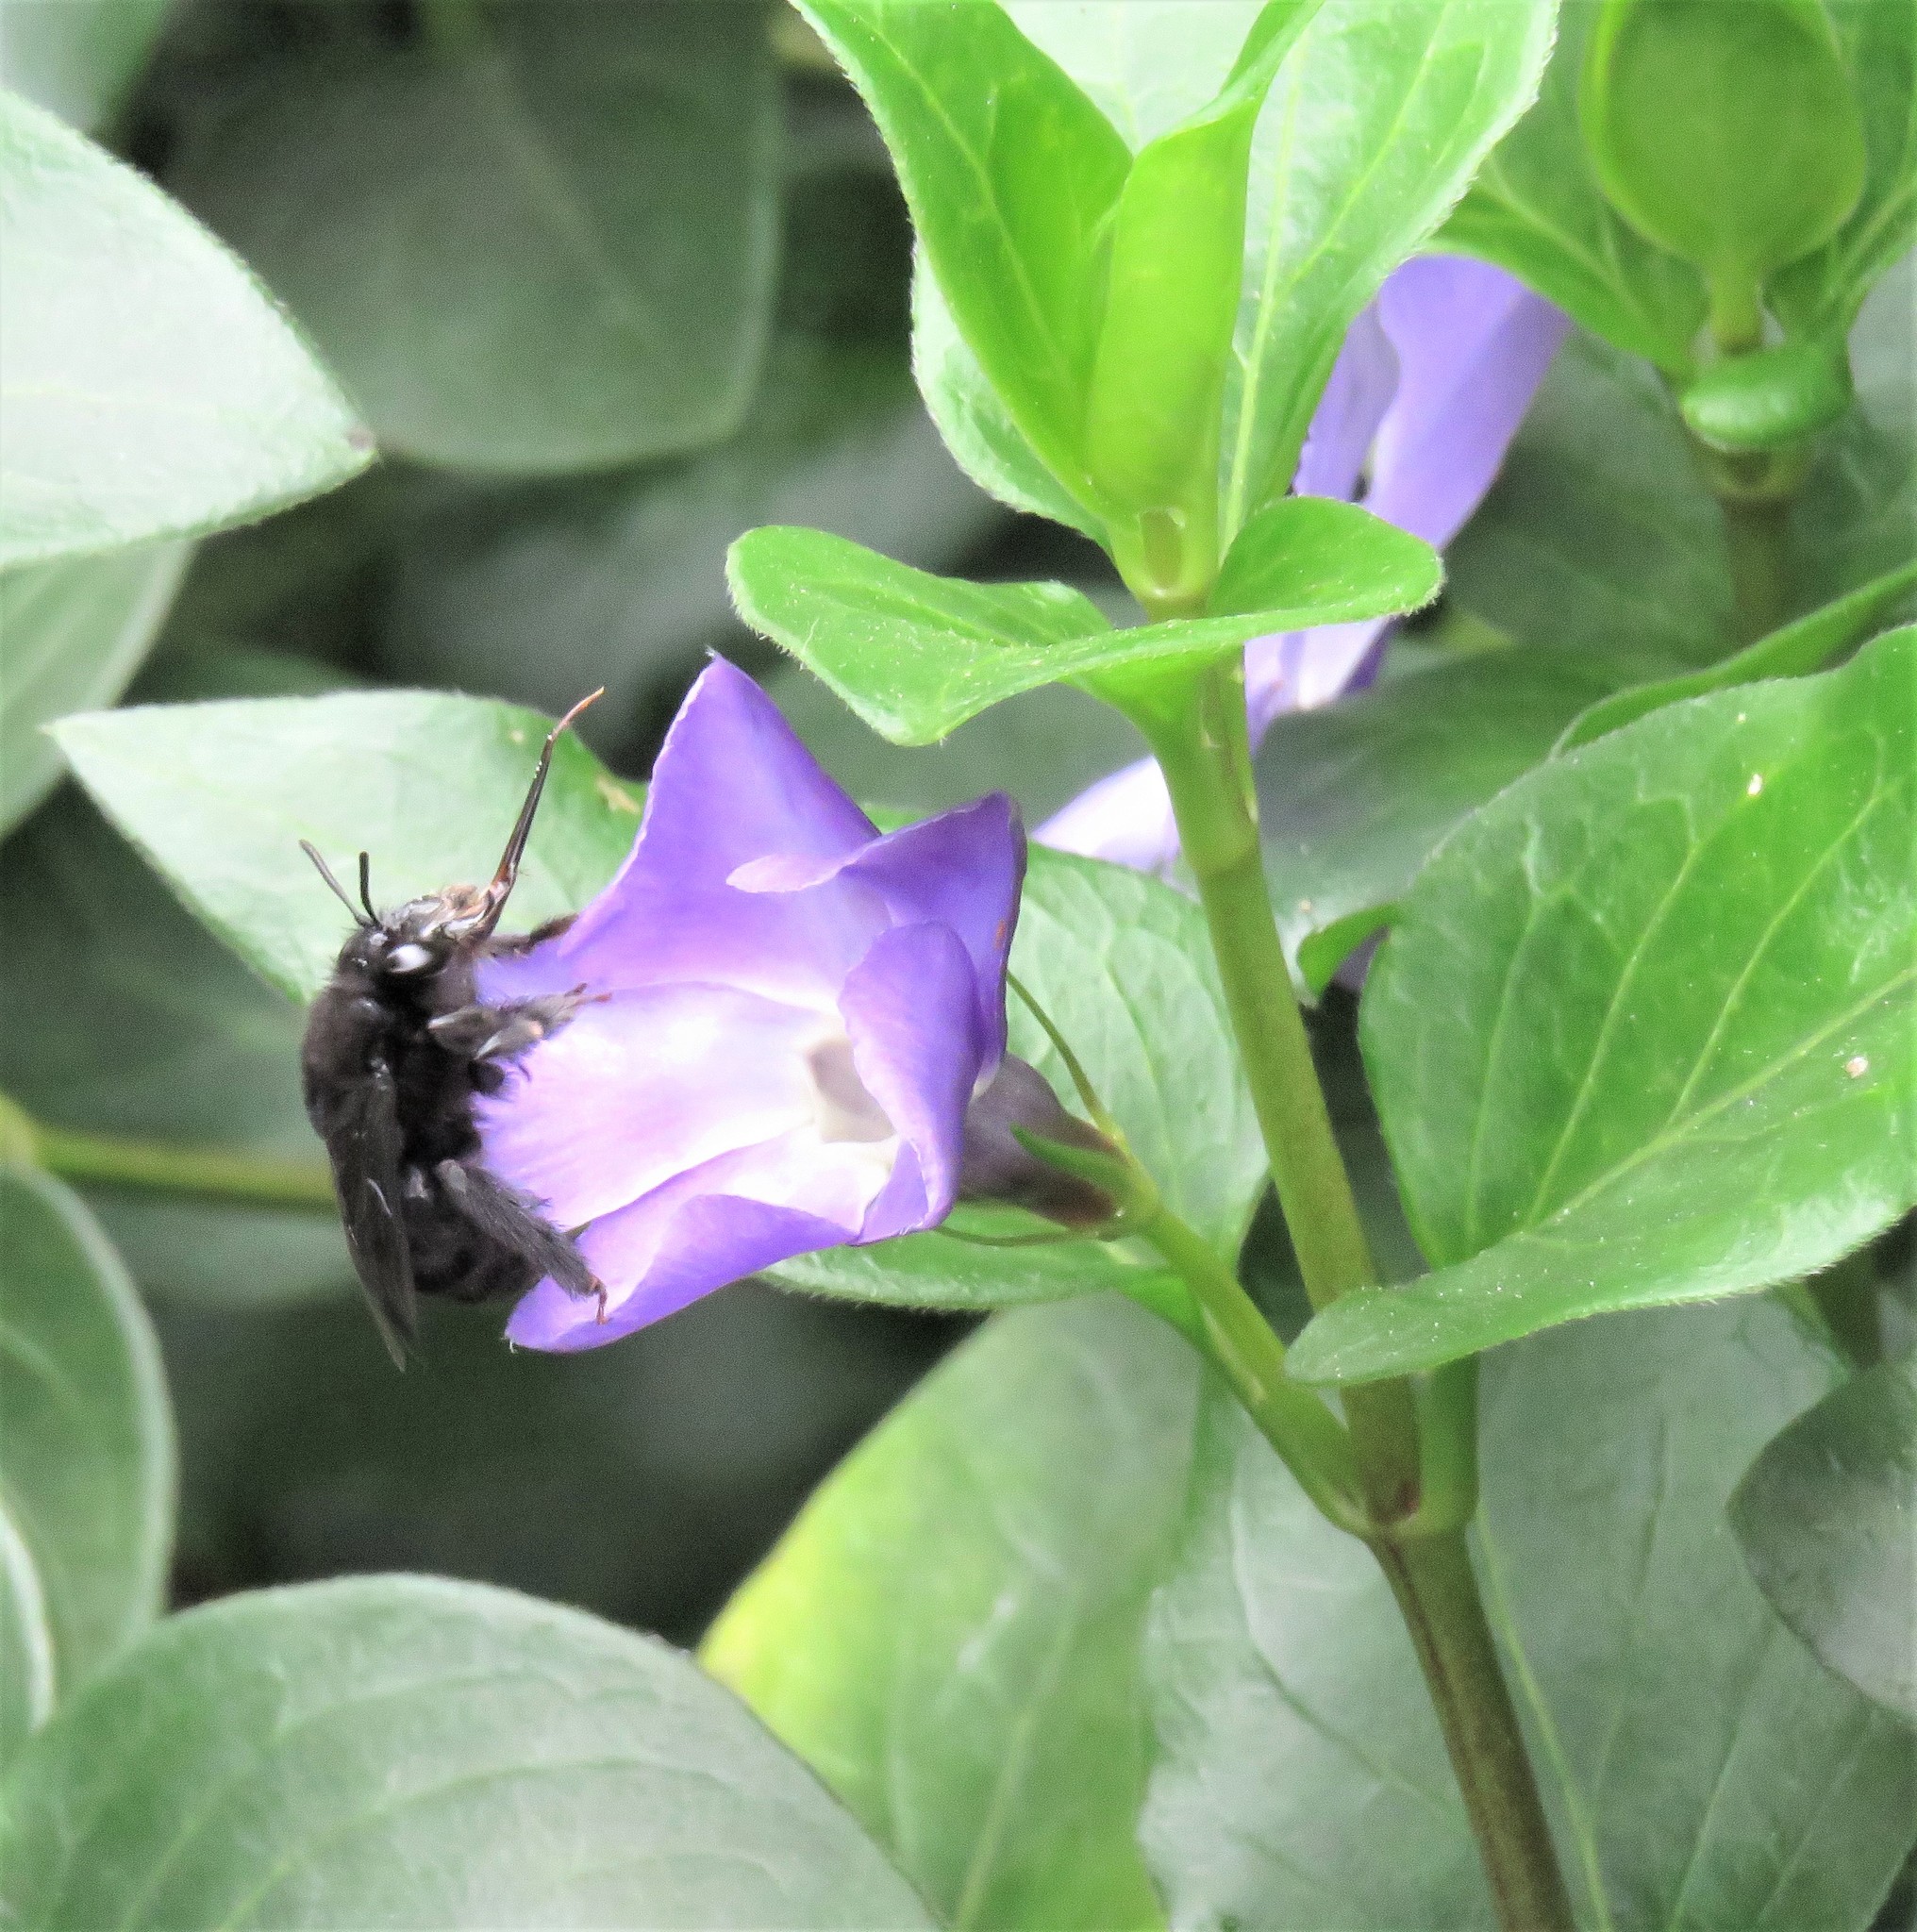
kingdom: Animalia
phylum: Arthropoda
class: Insecta
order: Hymenoptera
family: Apidae
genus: Thygater
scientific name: Thygater aethiops
